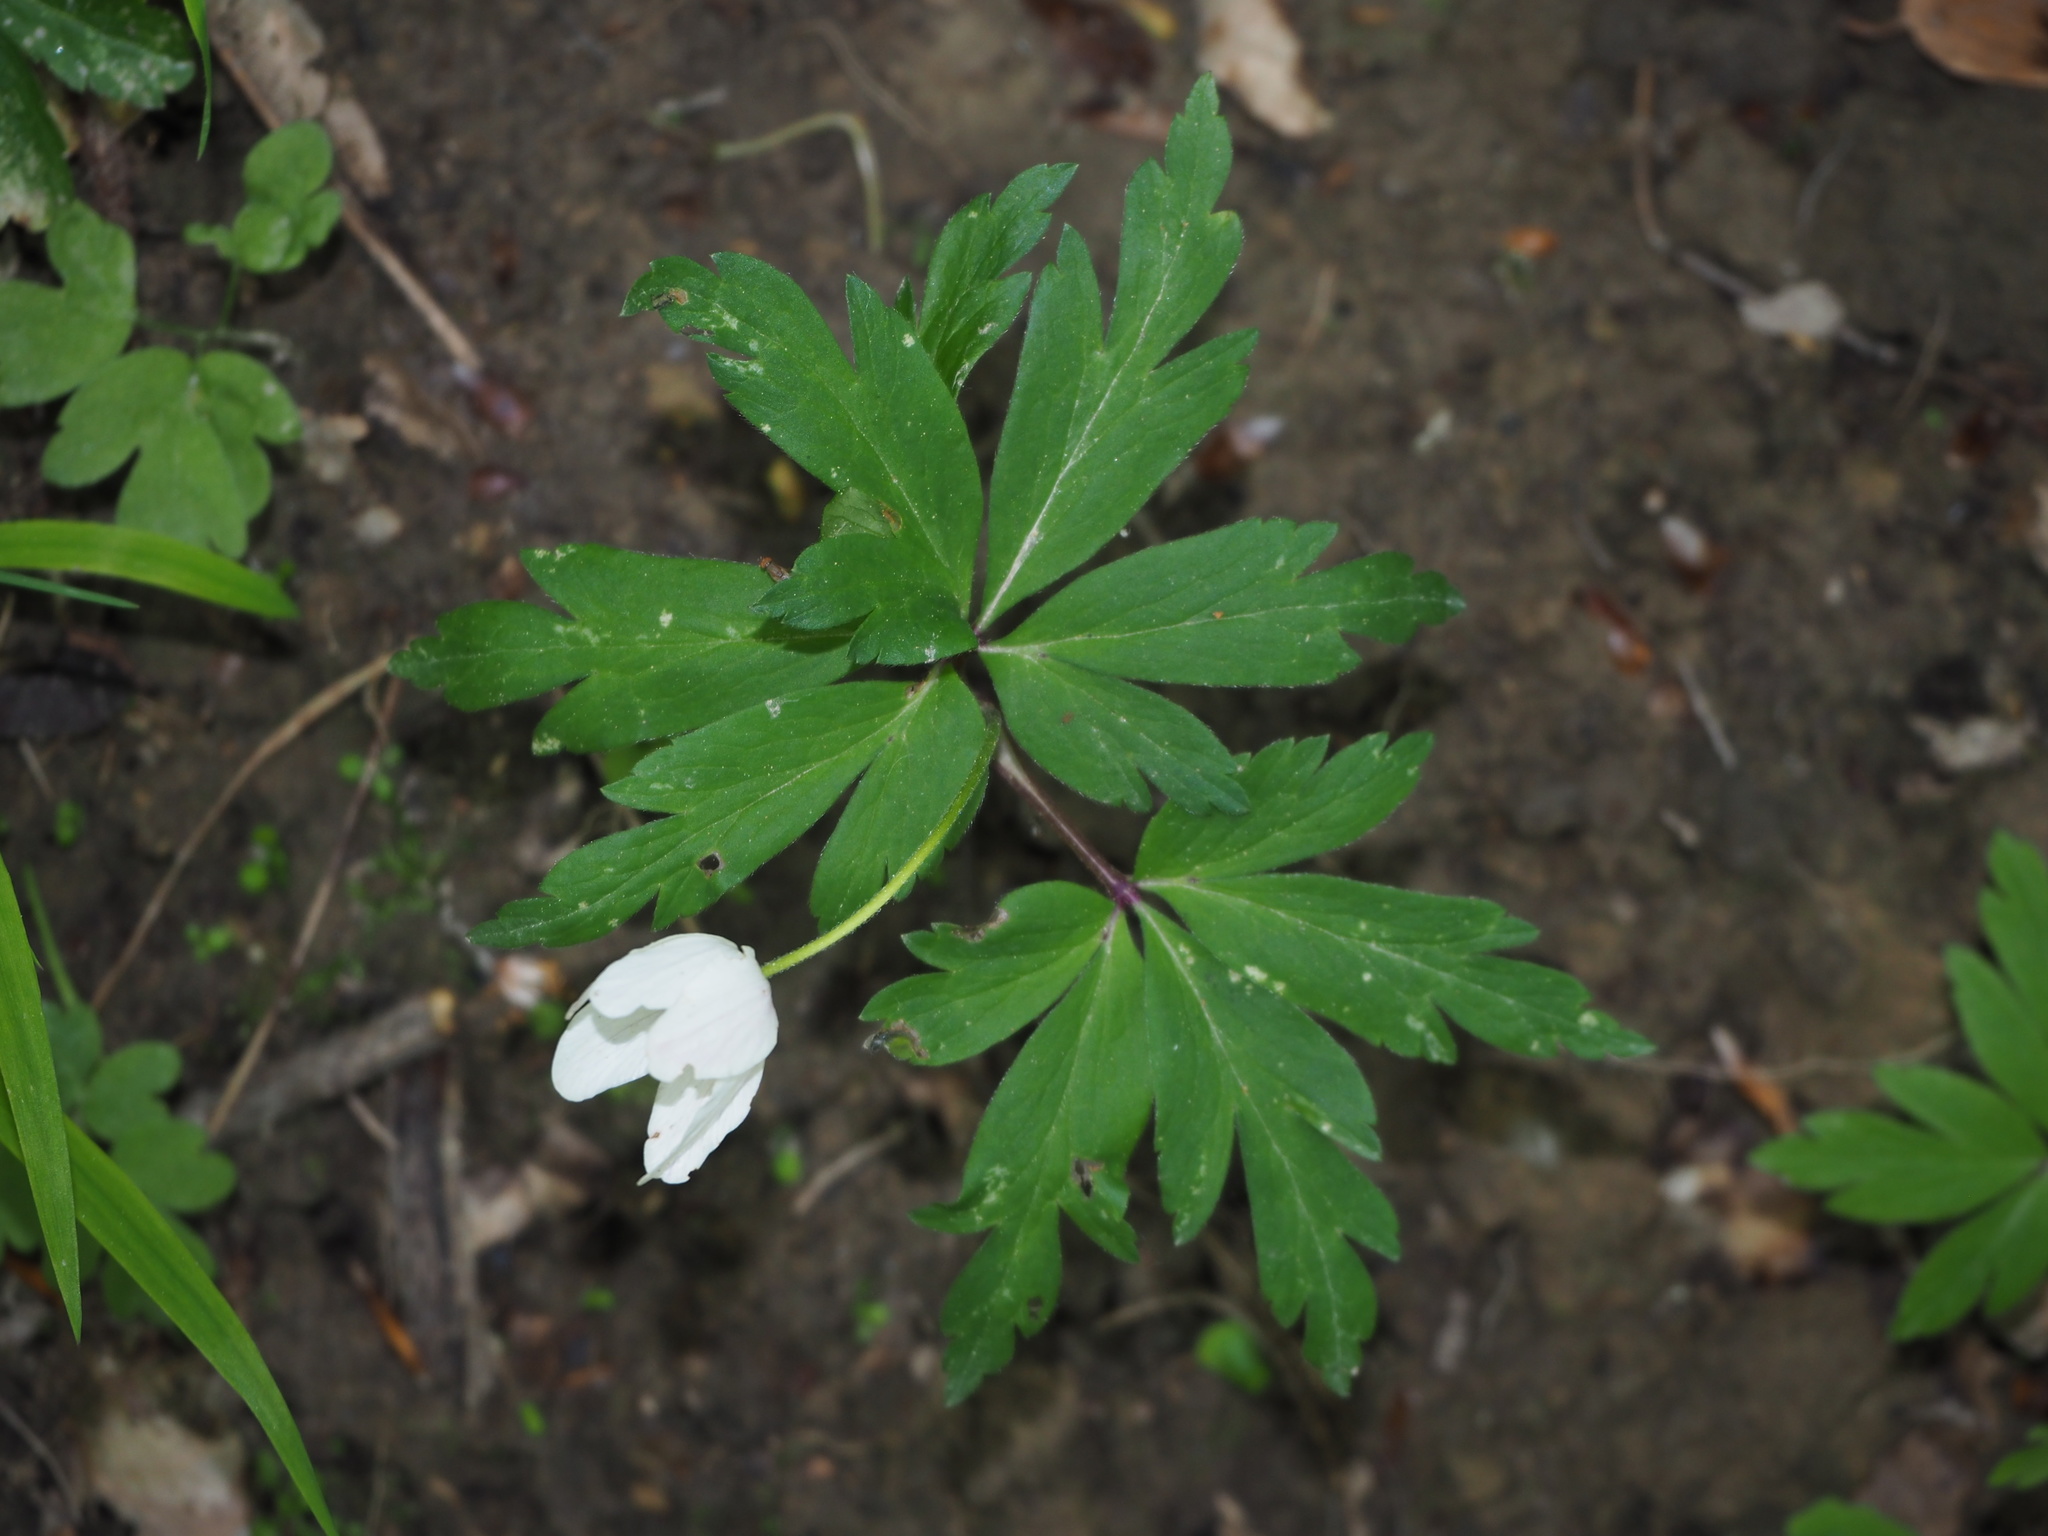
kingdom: Plantae
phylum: Tracheophyta
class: Magnoliopsida
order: Ranunculales
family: Ranunculaceae
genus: Anemone
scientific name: Anemone nemorosa
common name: Wood anemone
